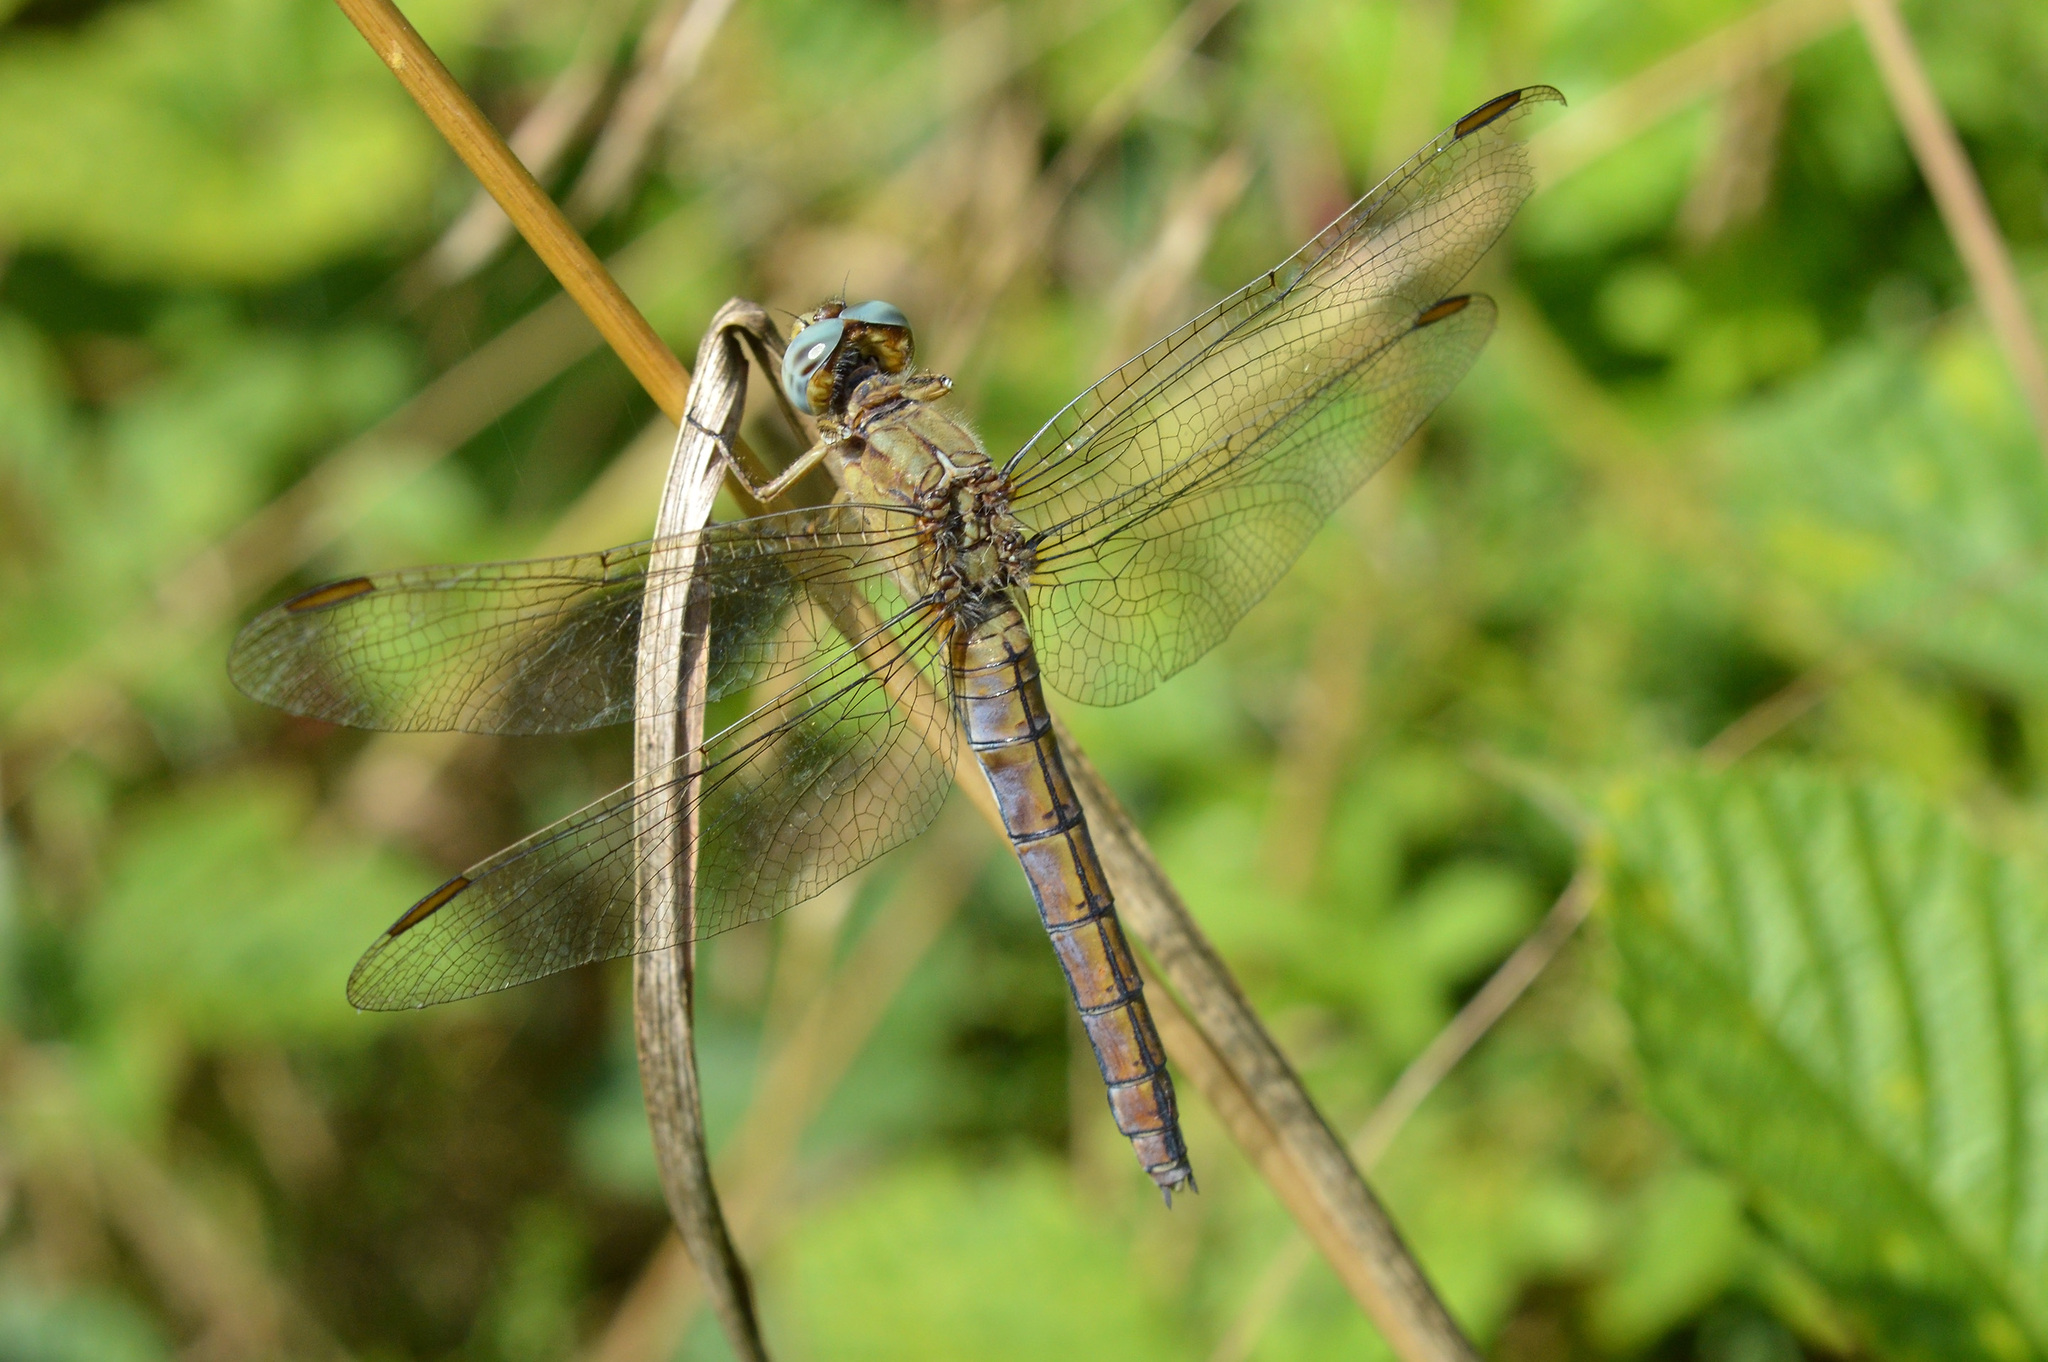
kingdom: Animalia
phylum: Arthropoda
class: Insecta
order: Odonata
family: Libellulidae
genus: Orthetrum
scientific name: Orthetrum coerulescens
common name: Keeled skimmer
